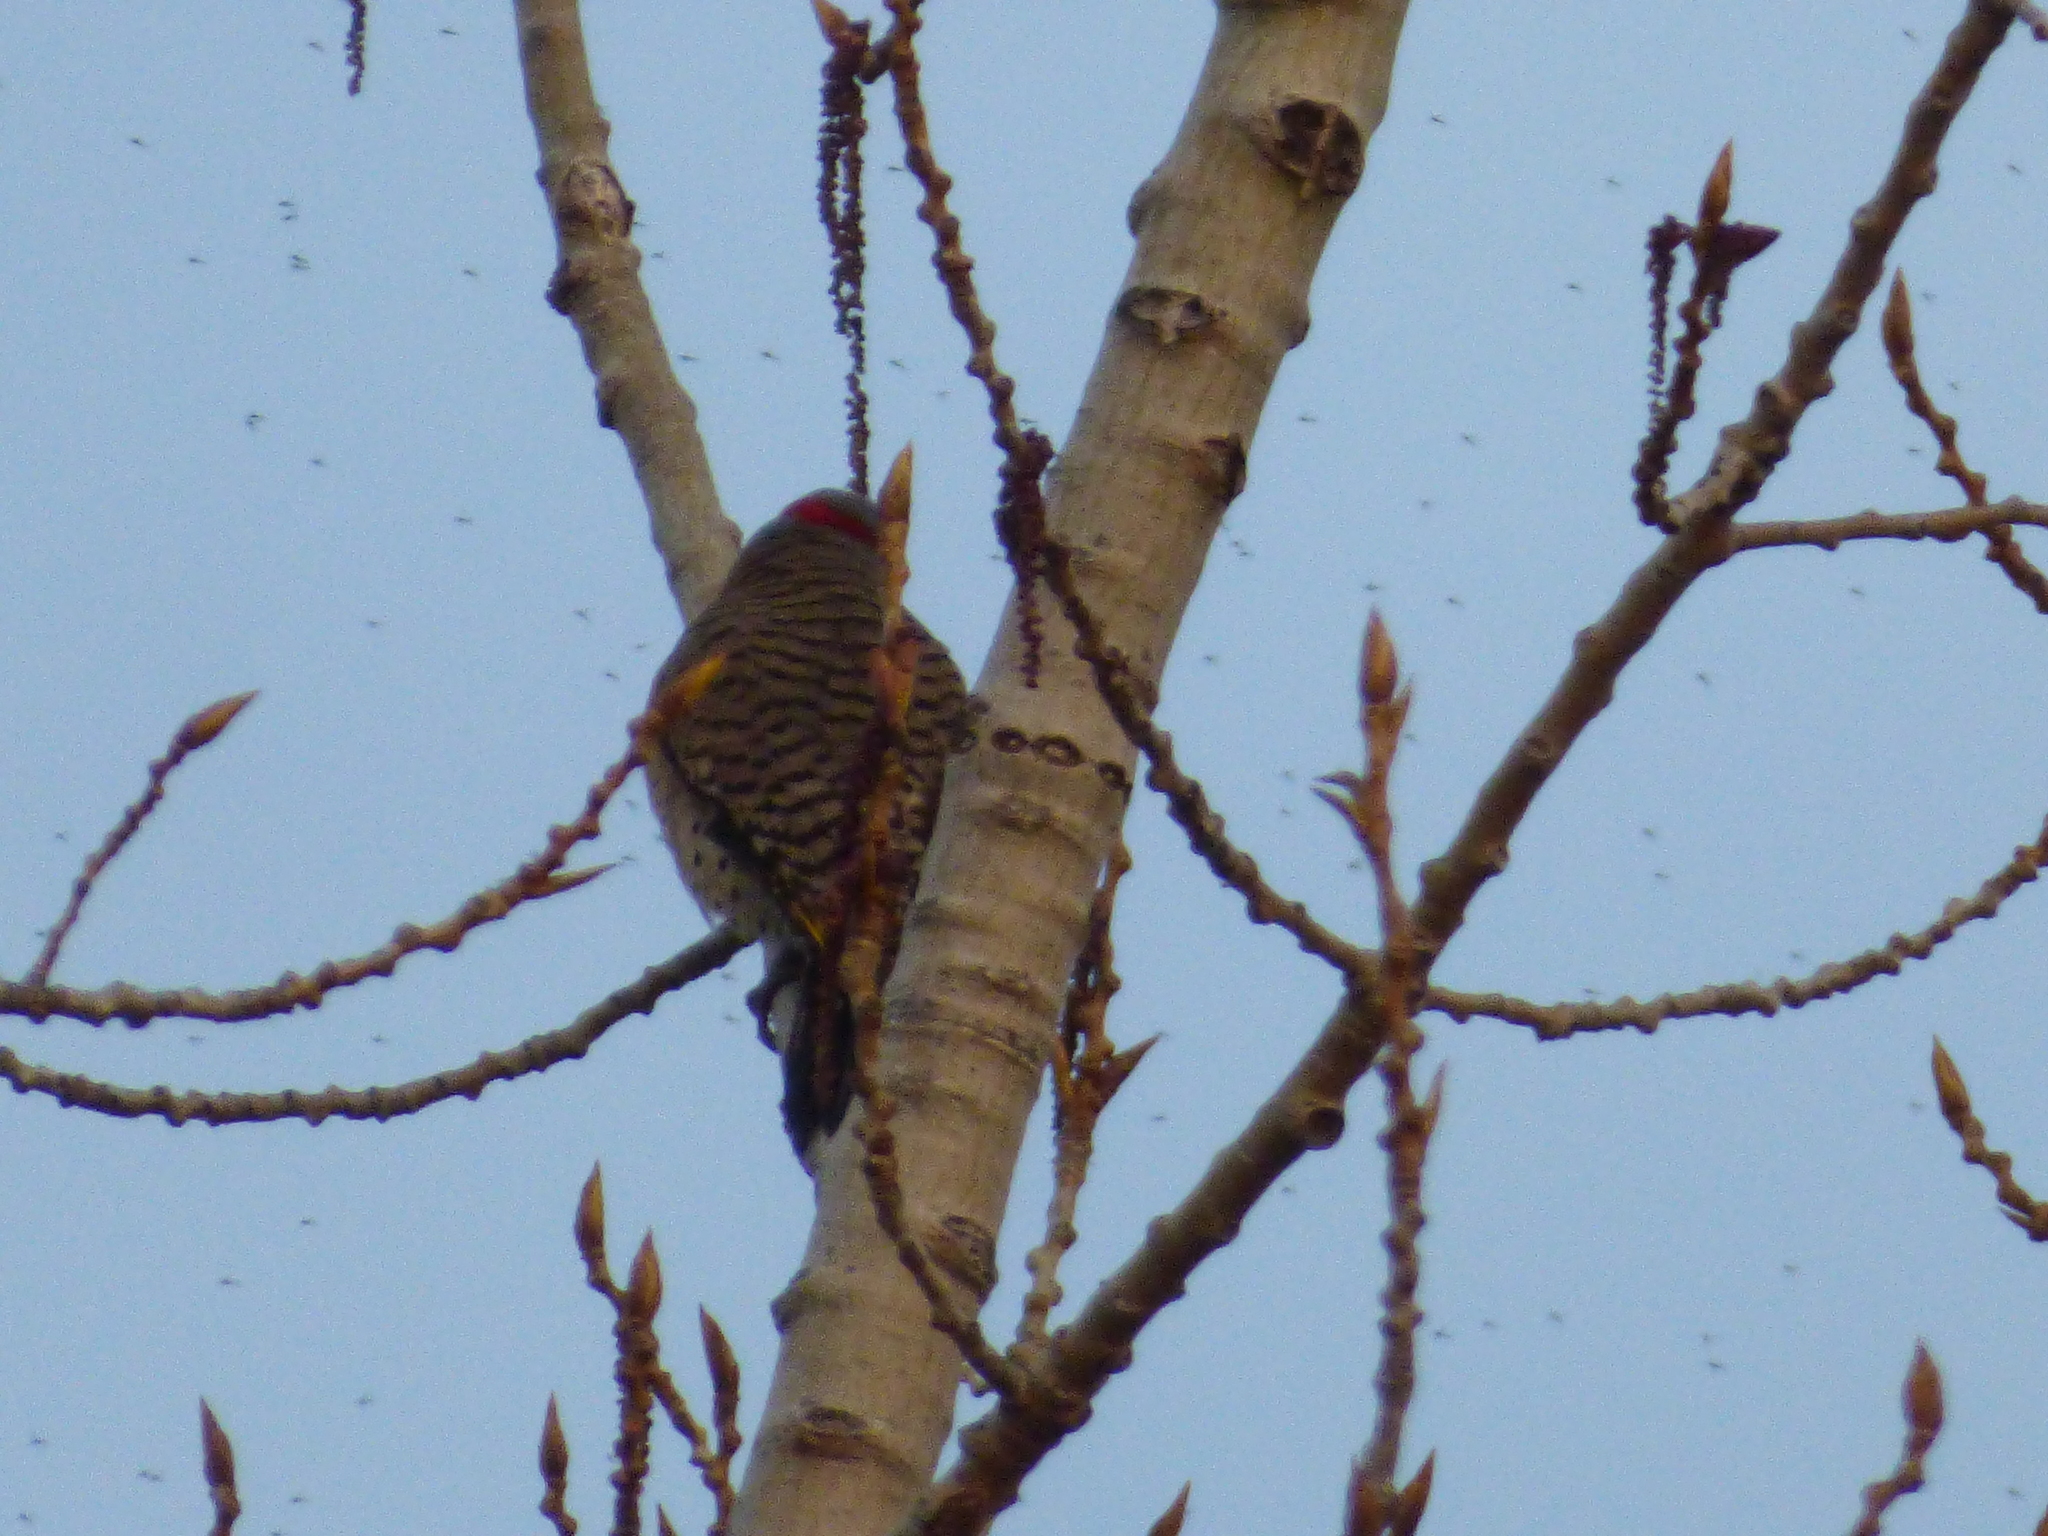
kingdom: Animalia
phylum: Chordata
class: Aves
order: Piciformes
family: Picidae
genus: Colaptes
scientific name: Colaptes auratus
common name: Northern flicker
